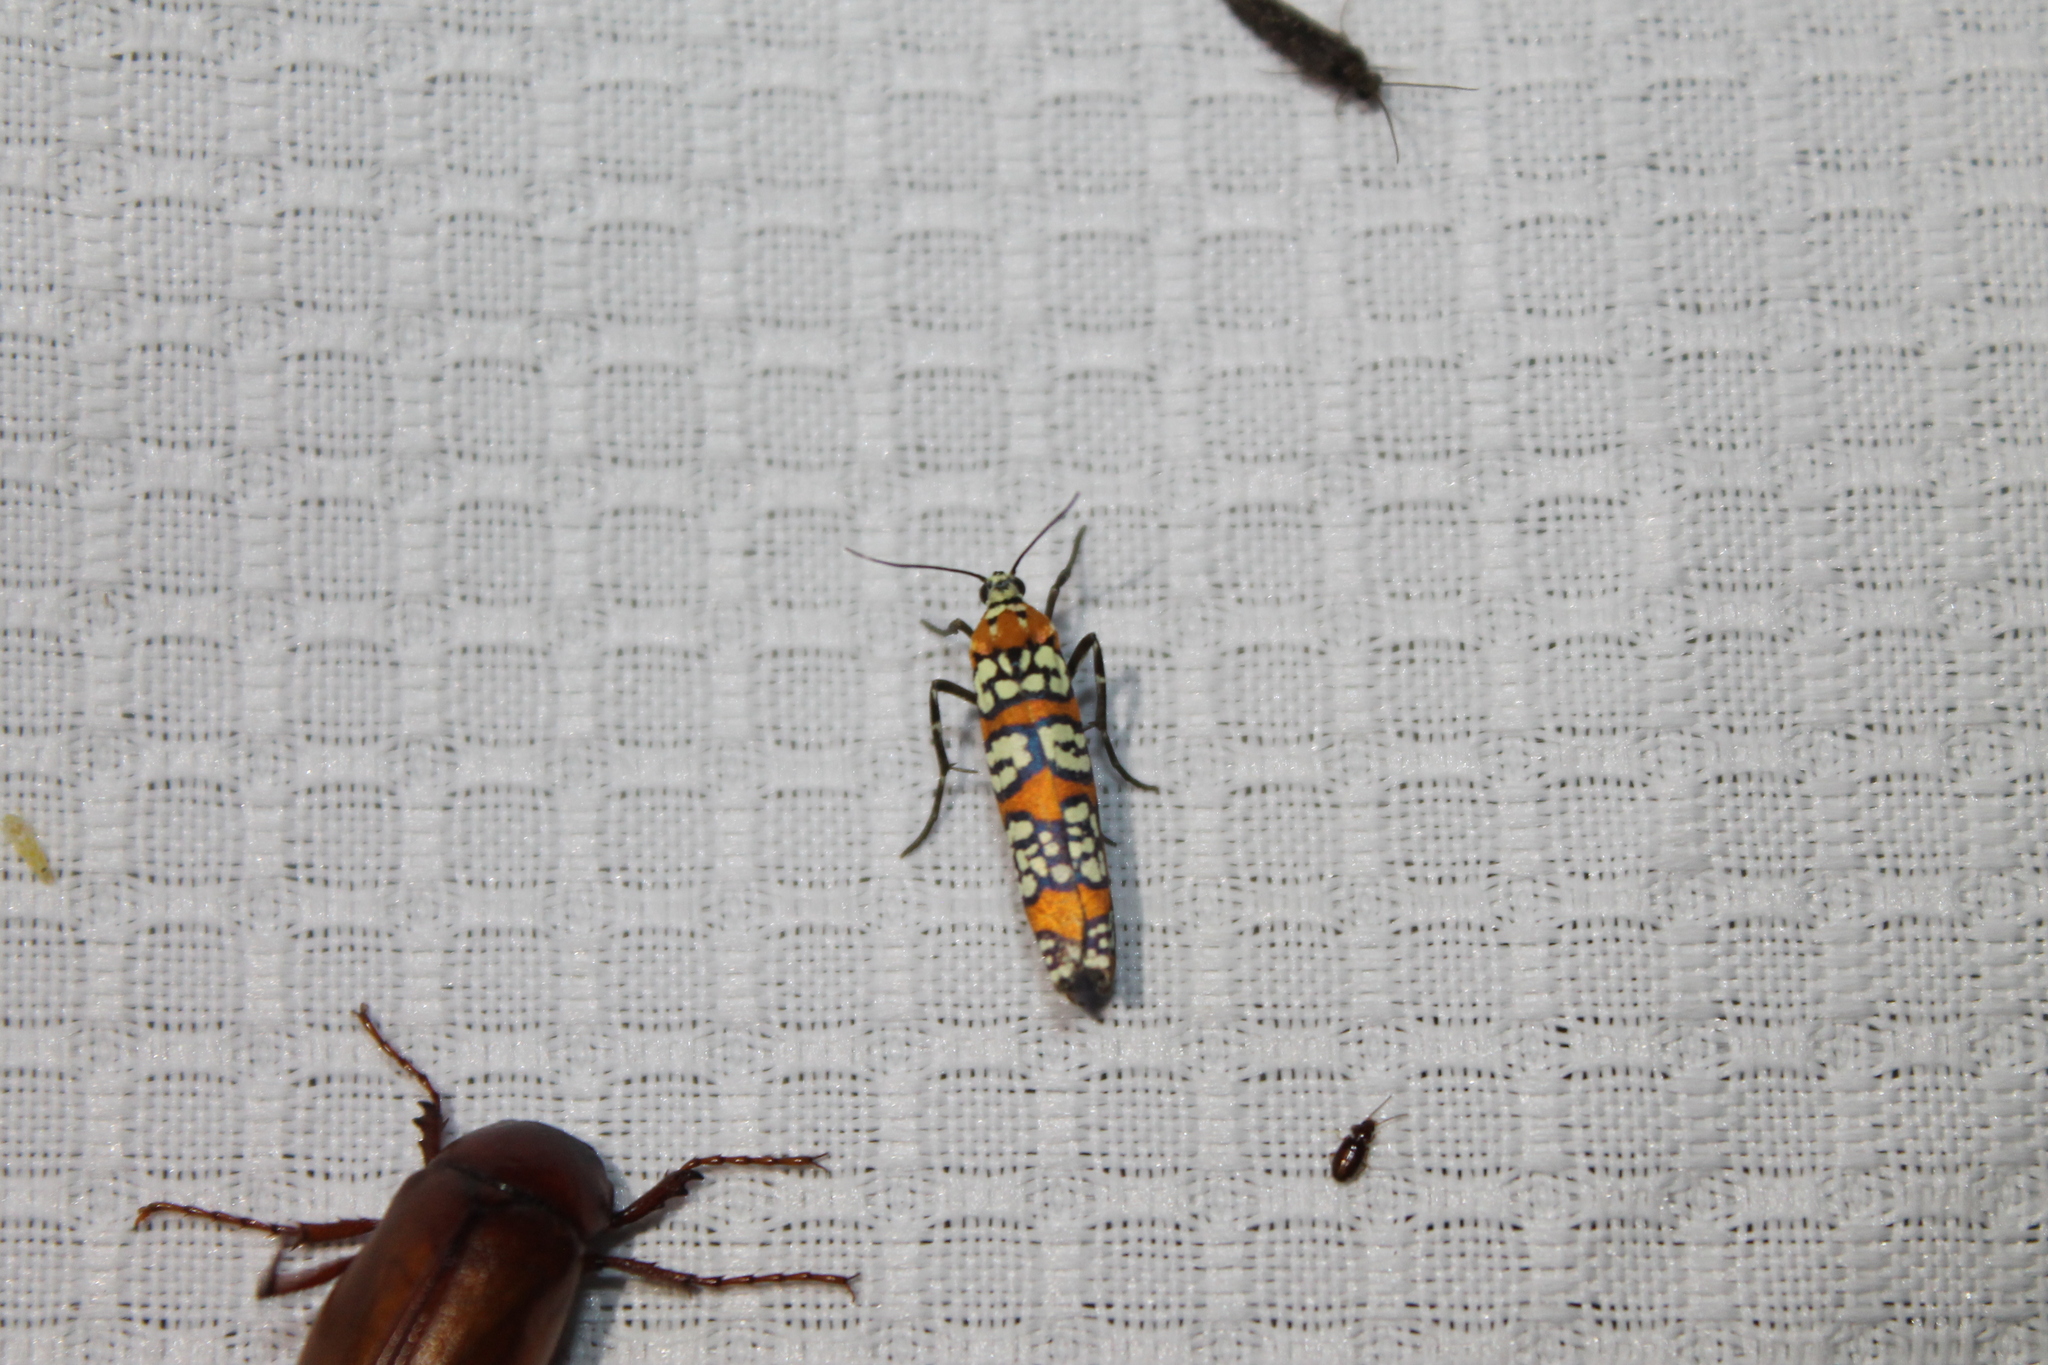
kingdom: Animalia
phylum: Arthropoda
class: Insecta
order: Lepidoptera
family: Attevidae
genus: Atteva
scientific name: Atteva punctella
